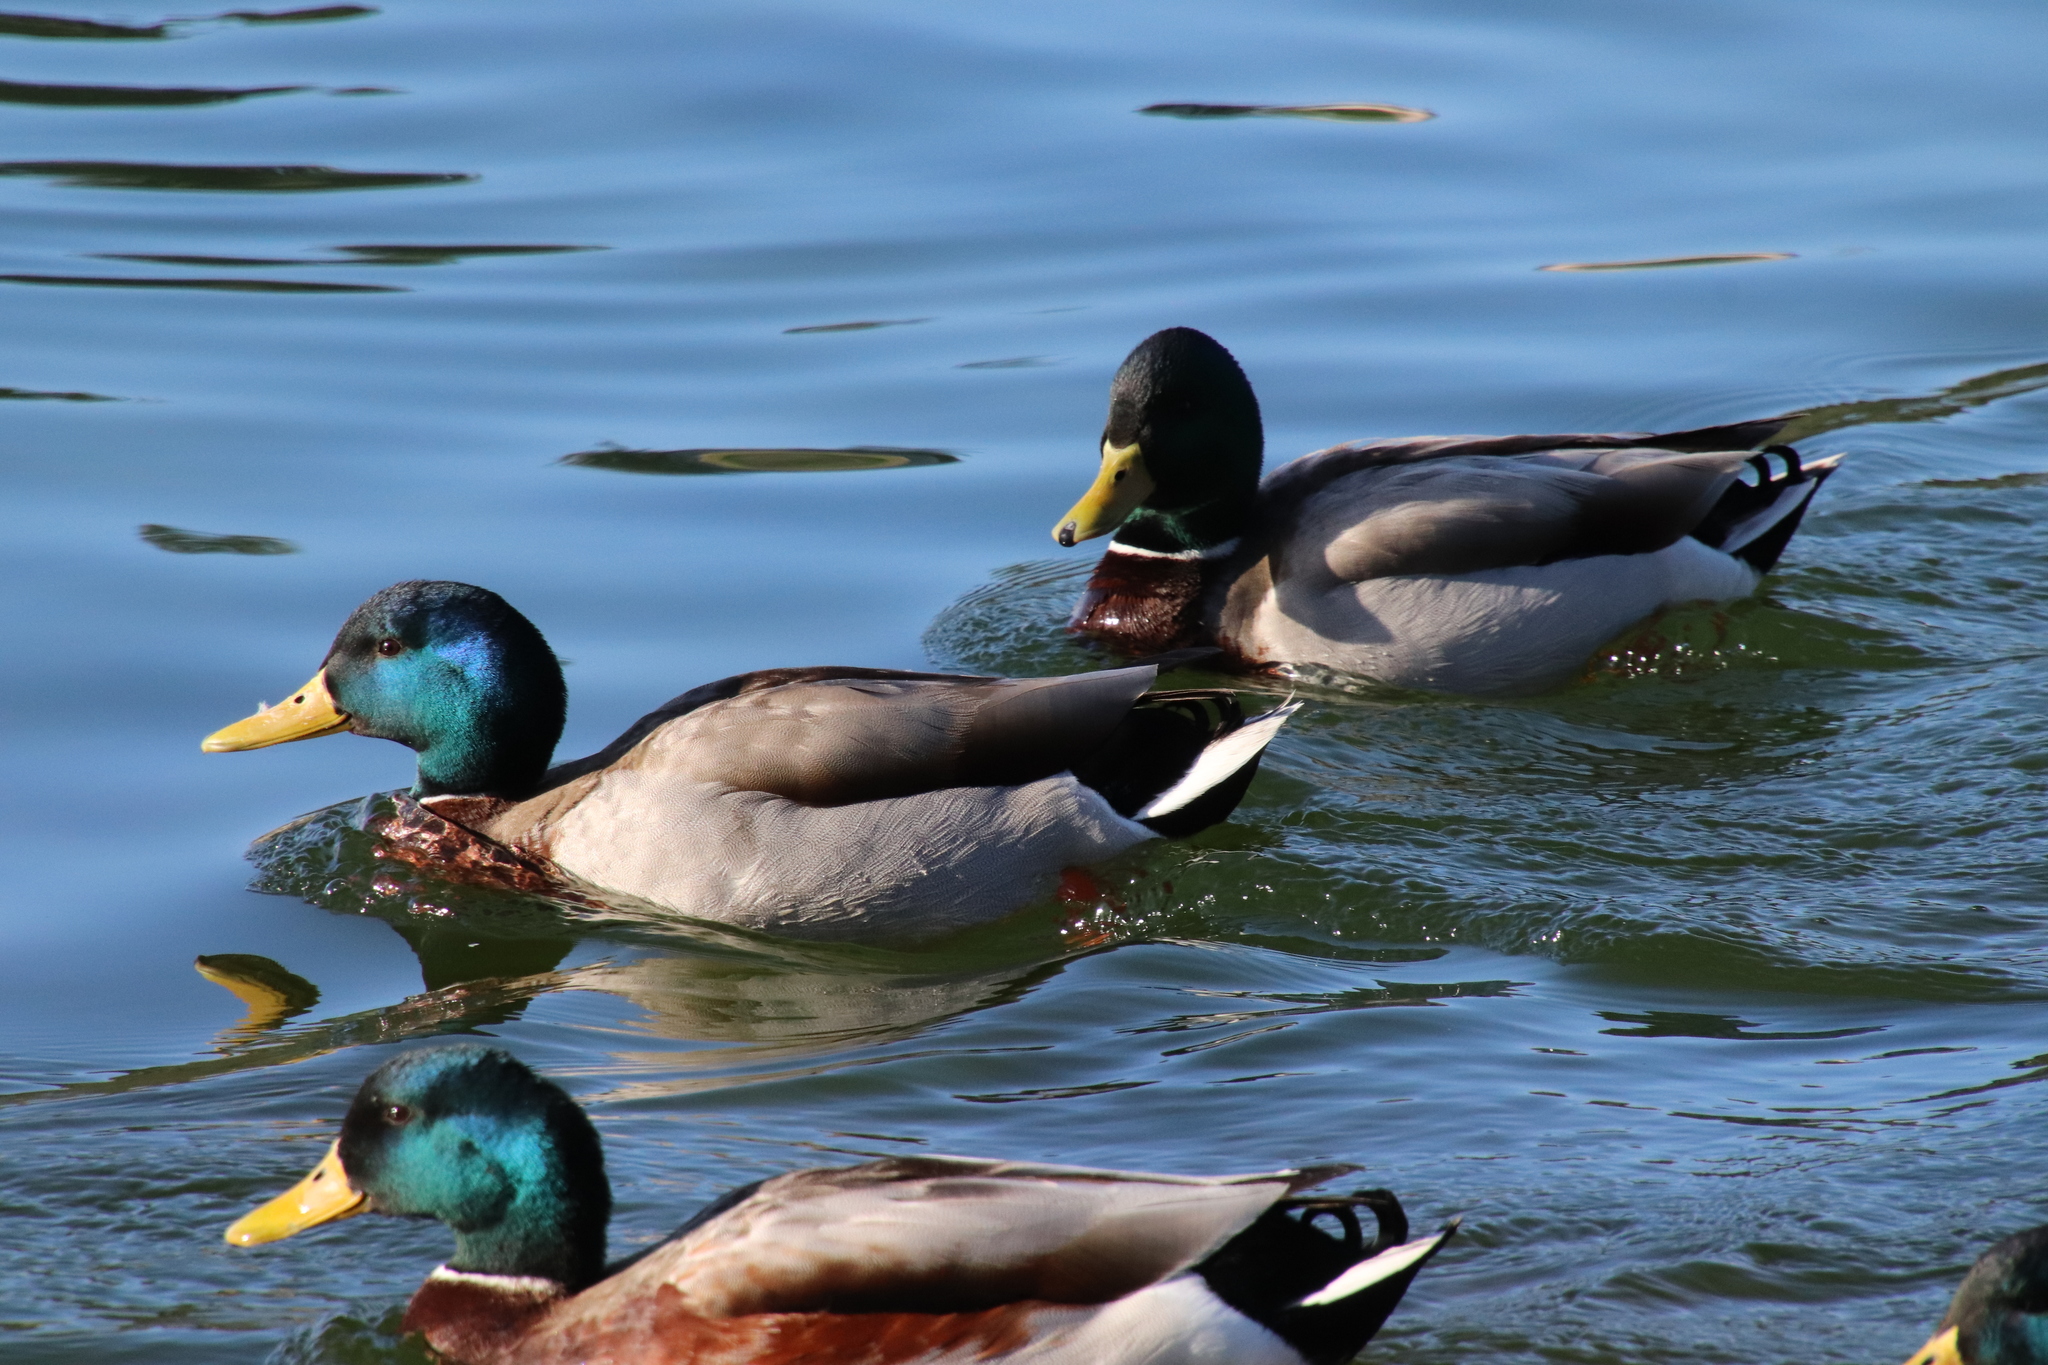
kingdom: Animalia
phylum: Chordata
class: Aves
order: Anseriformes
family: Anatidae
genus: Anas
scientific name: Anas platyrhynchos
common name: Mallard
